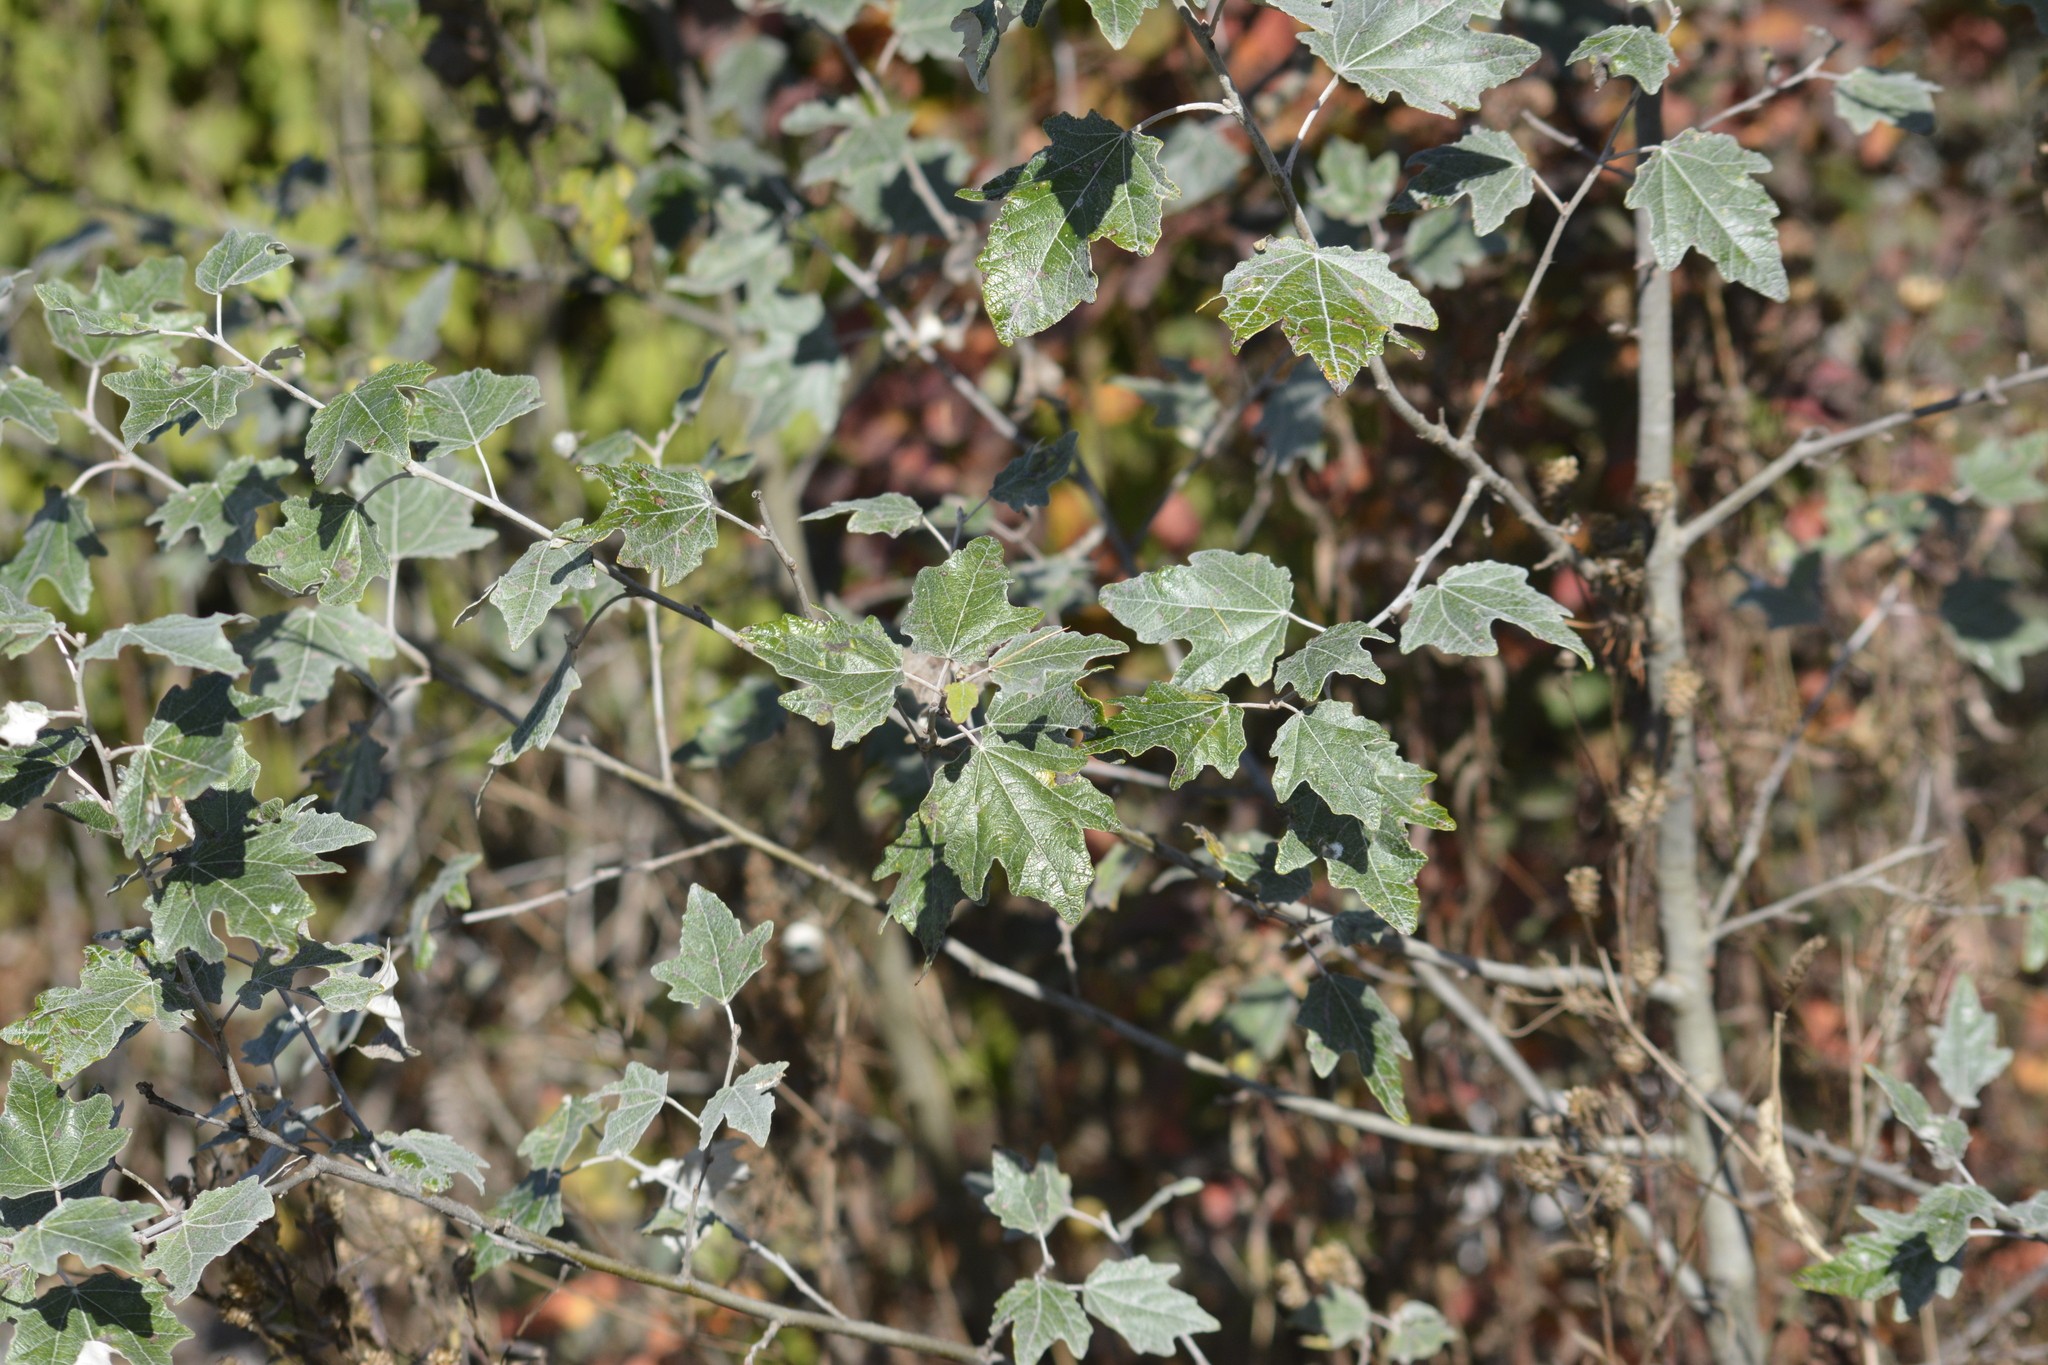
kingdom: Plantae
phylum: Tracheophyta
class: Magnoliopsida
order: Malpighiales
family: Salicaceae
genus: Populus
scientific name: Populus alba
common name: White poplar
